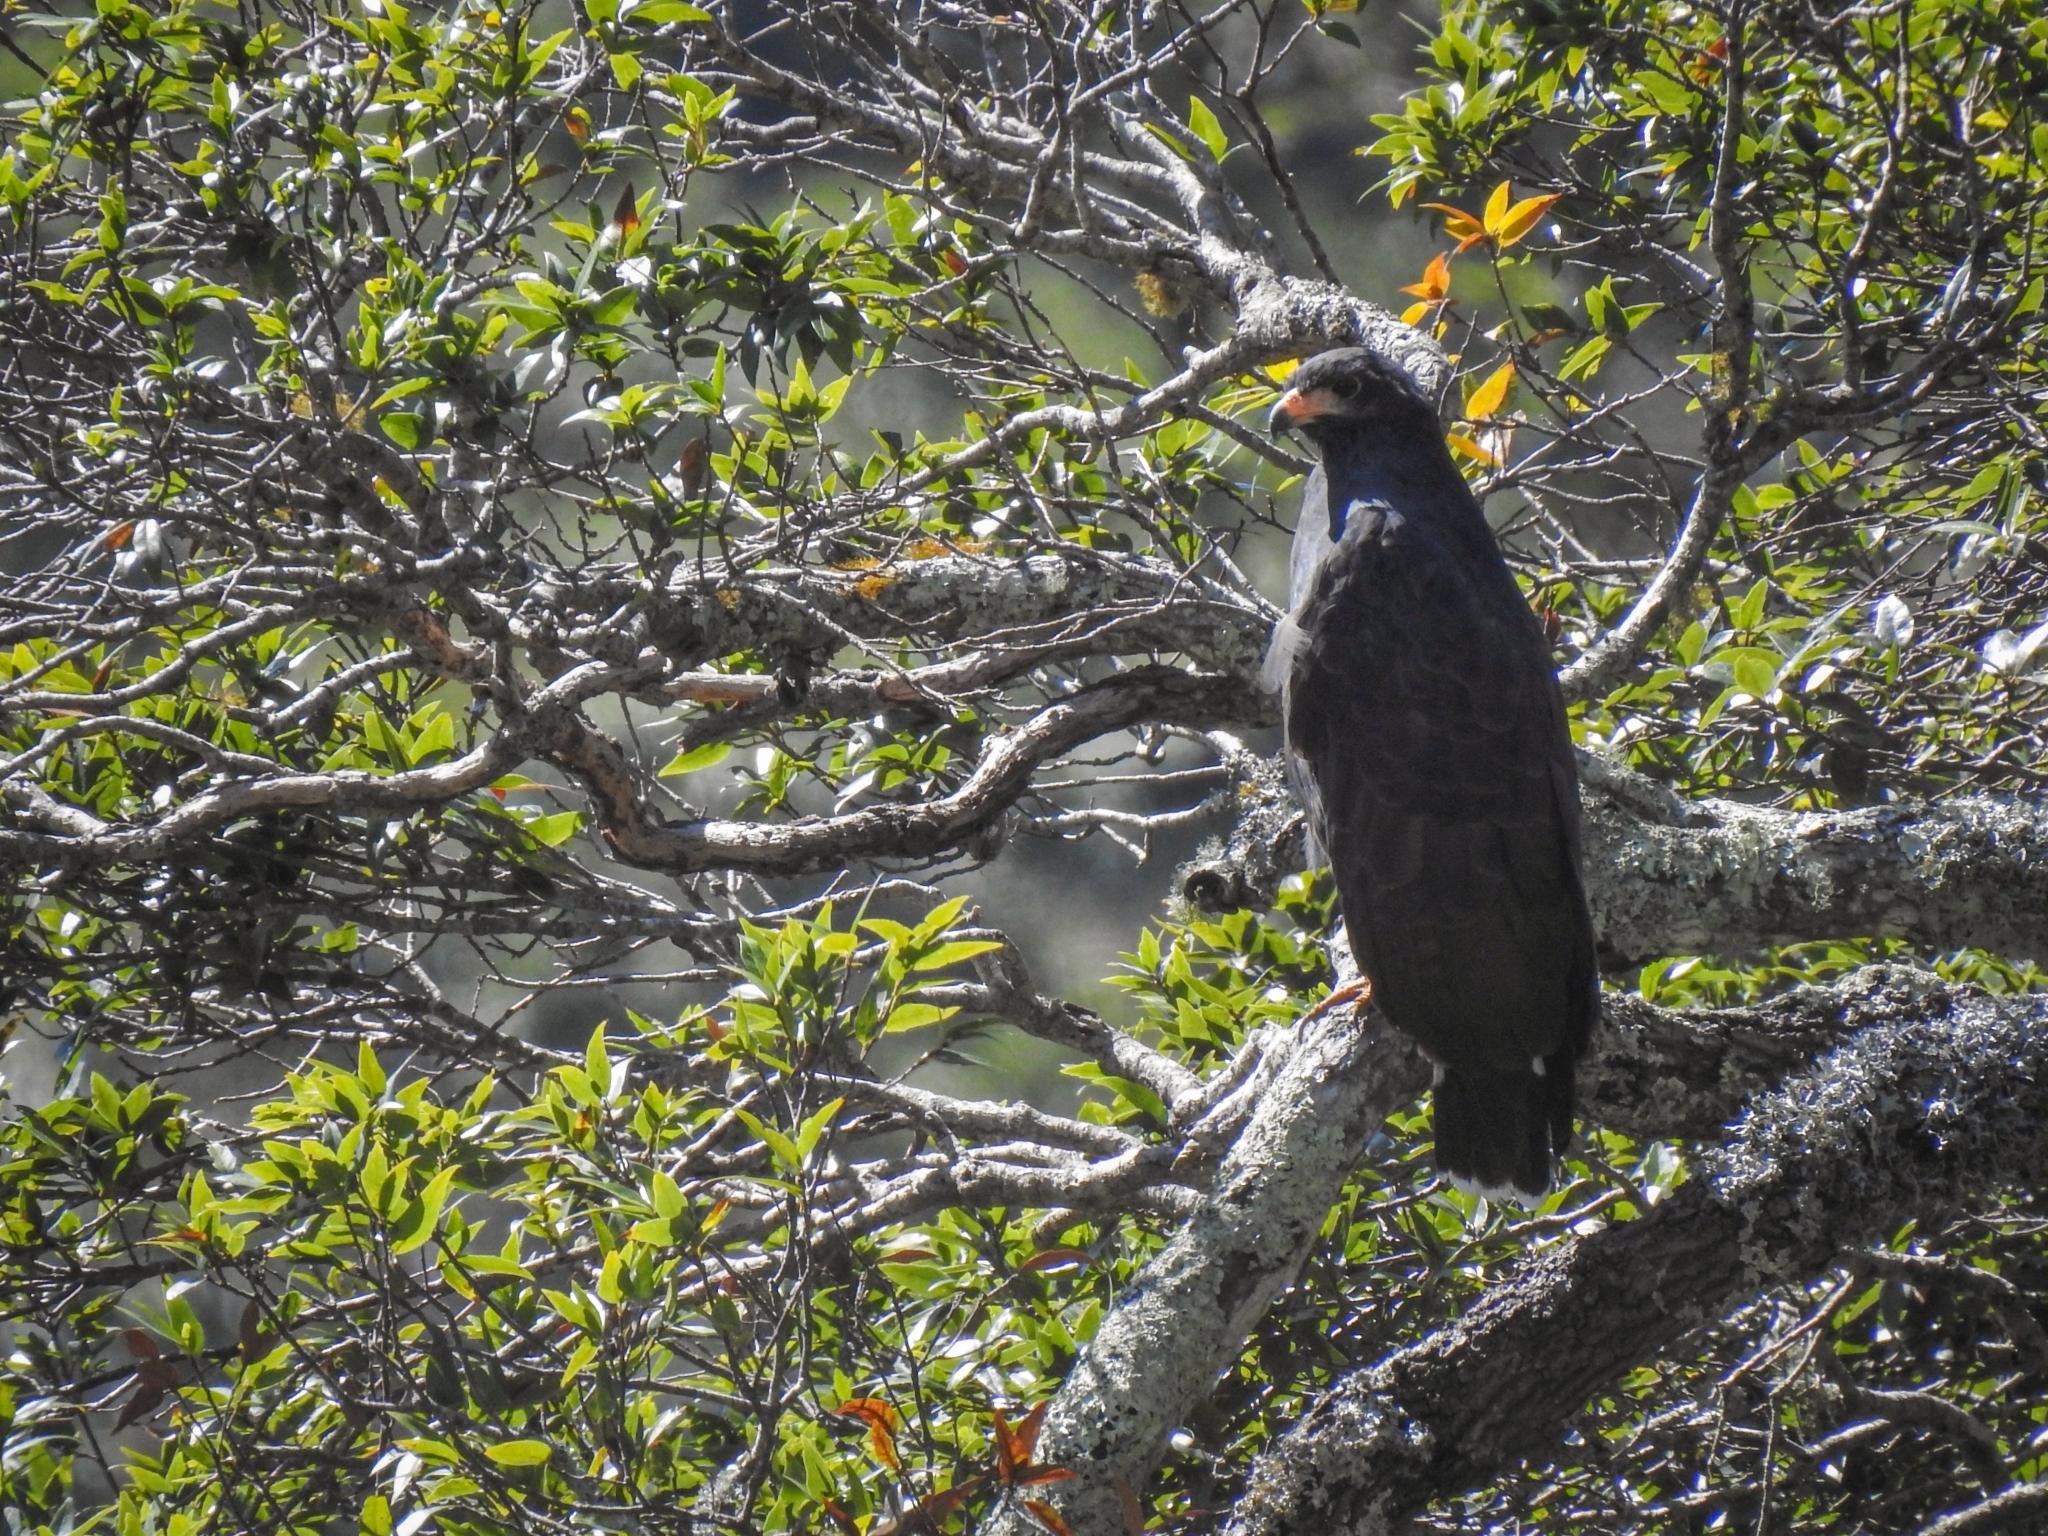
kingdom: Animalia
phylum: Chordata
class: Aves
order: Accipitriformes
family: Accipitridae
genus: Buteogallus
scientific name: Buteogallus anthracinus
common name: Common black hawk
